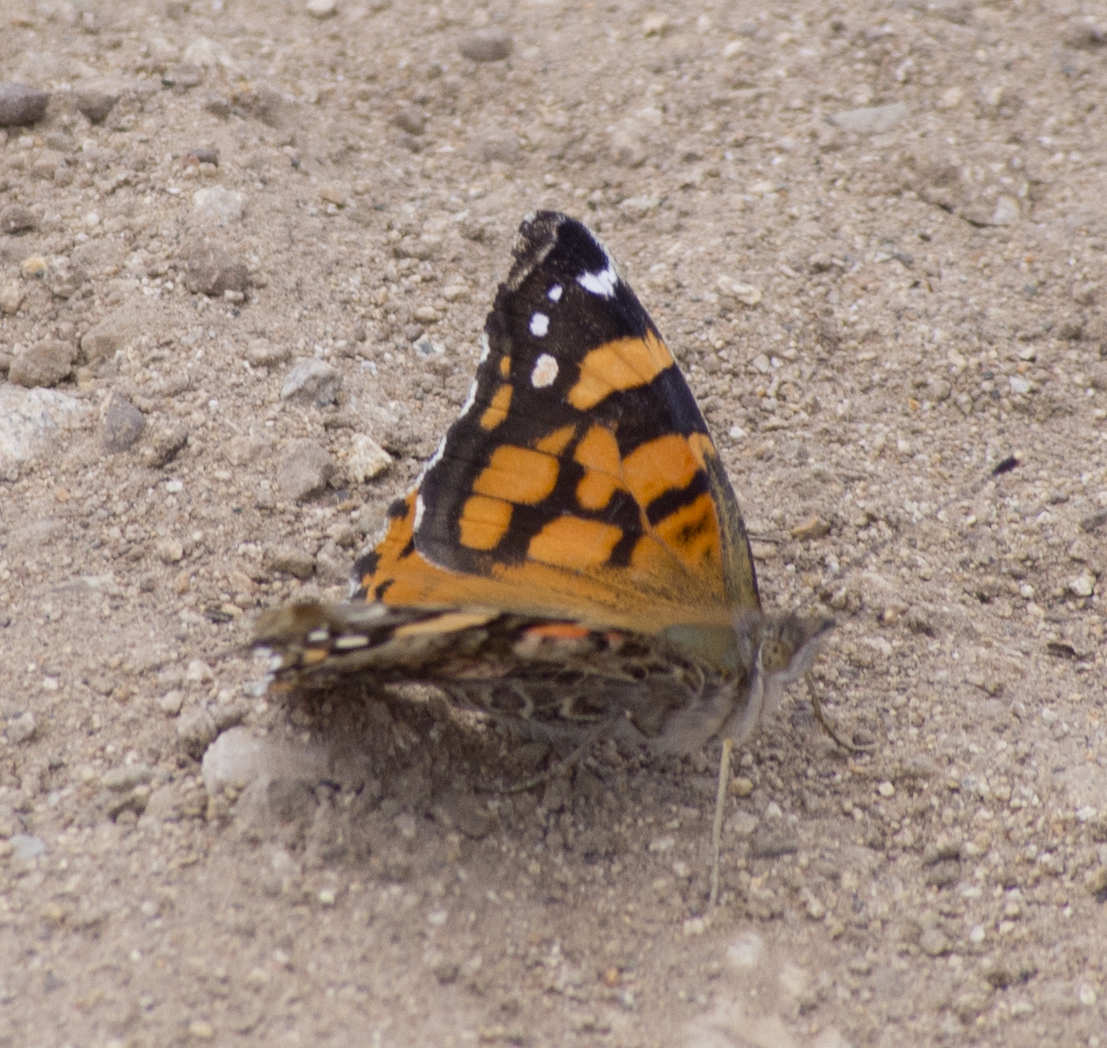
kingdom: Animalia
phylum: Arthropoda
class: Insecta
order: Lepidoptera
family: Nymphalidae
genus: Vanessa
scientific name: Vanessa annabella
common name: West coast lady
